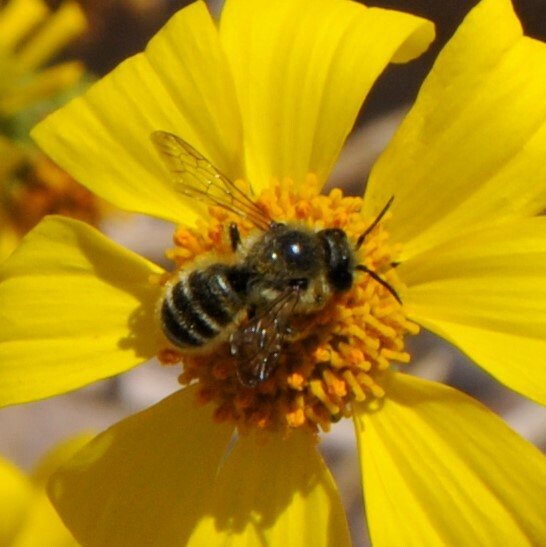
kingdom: Animalia
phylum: Arthropoda
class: Insecta
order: Hymenoptera
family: Megachilidae
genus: Hoplitis
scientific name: Hoplitis
